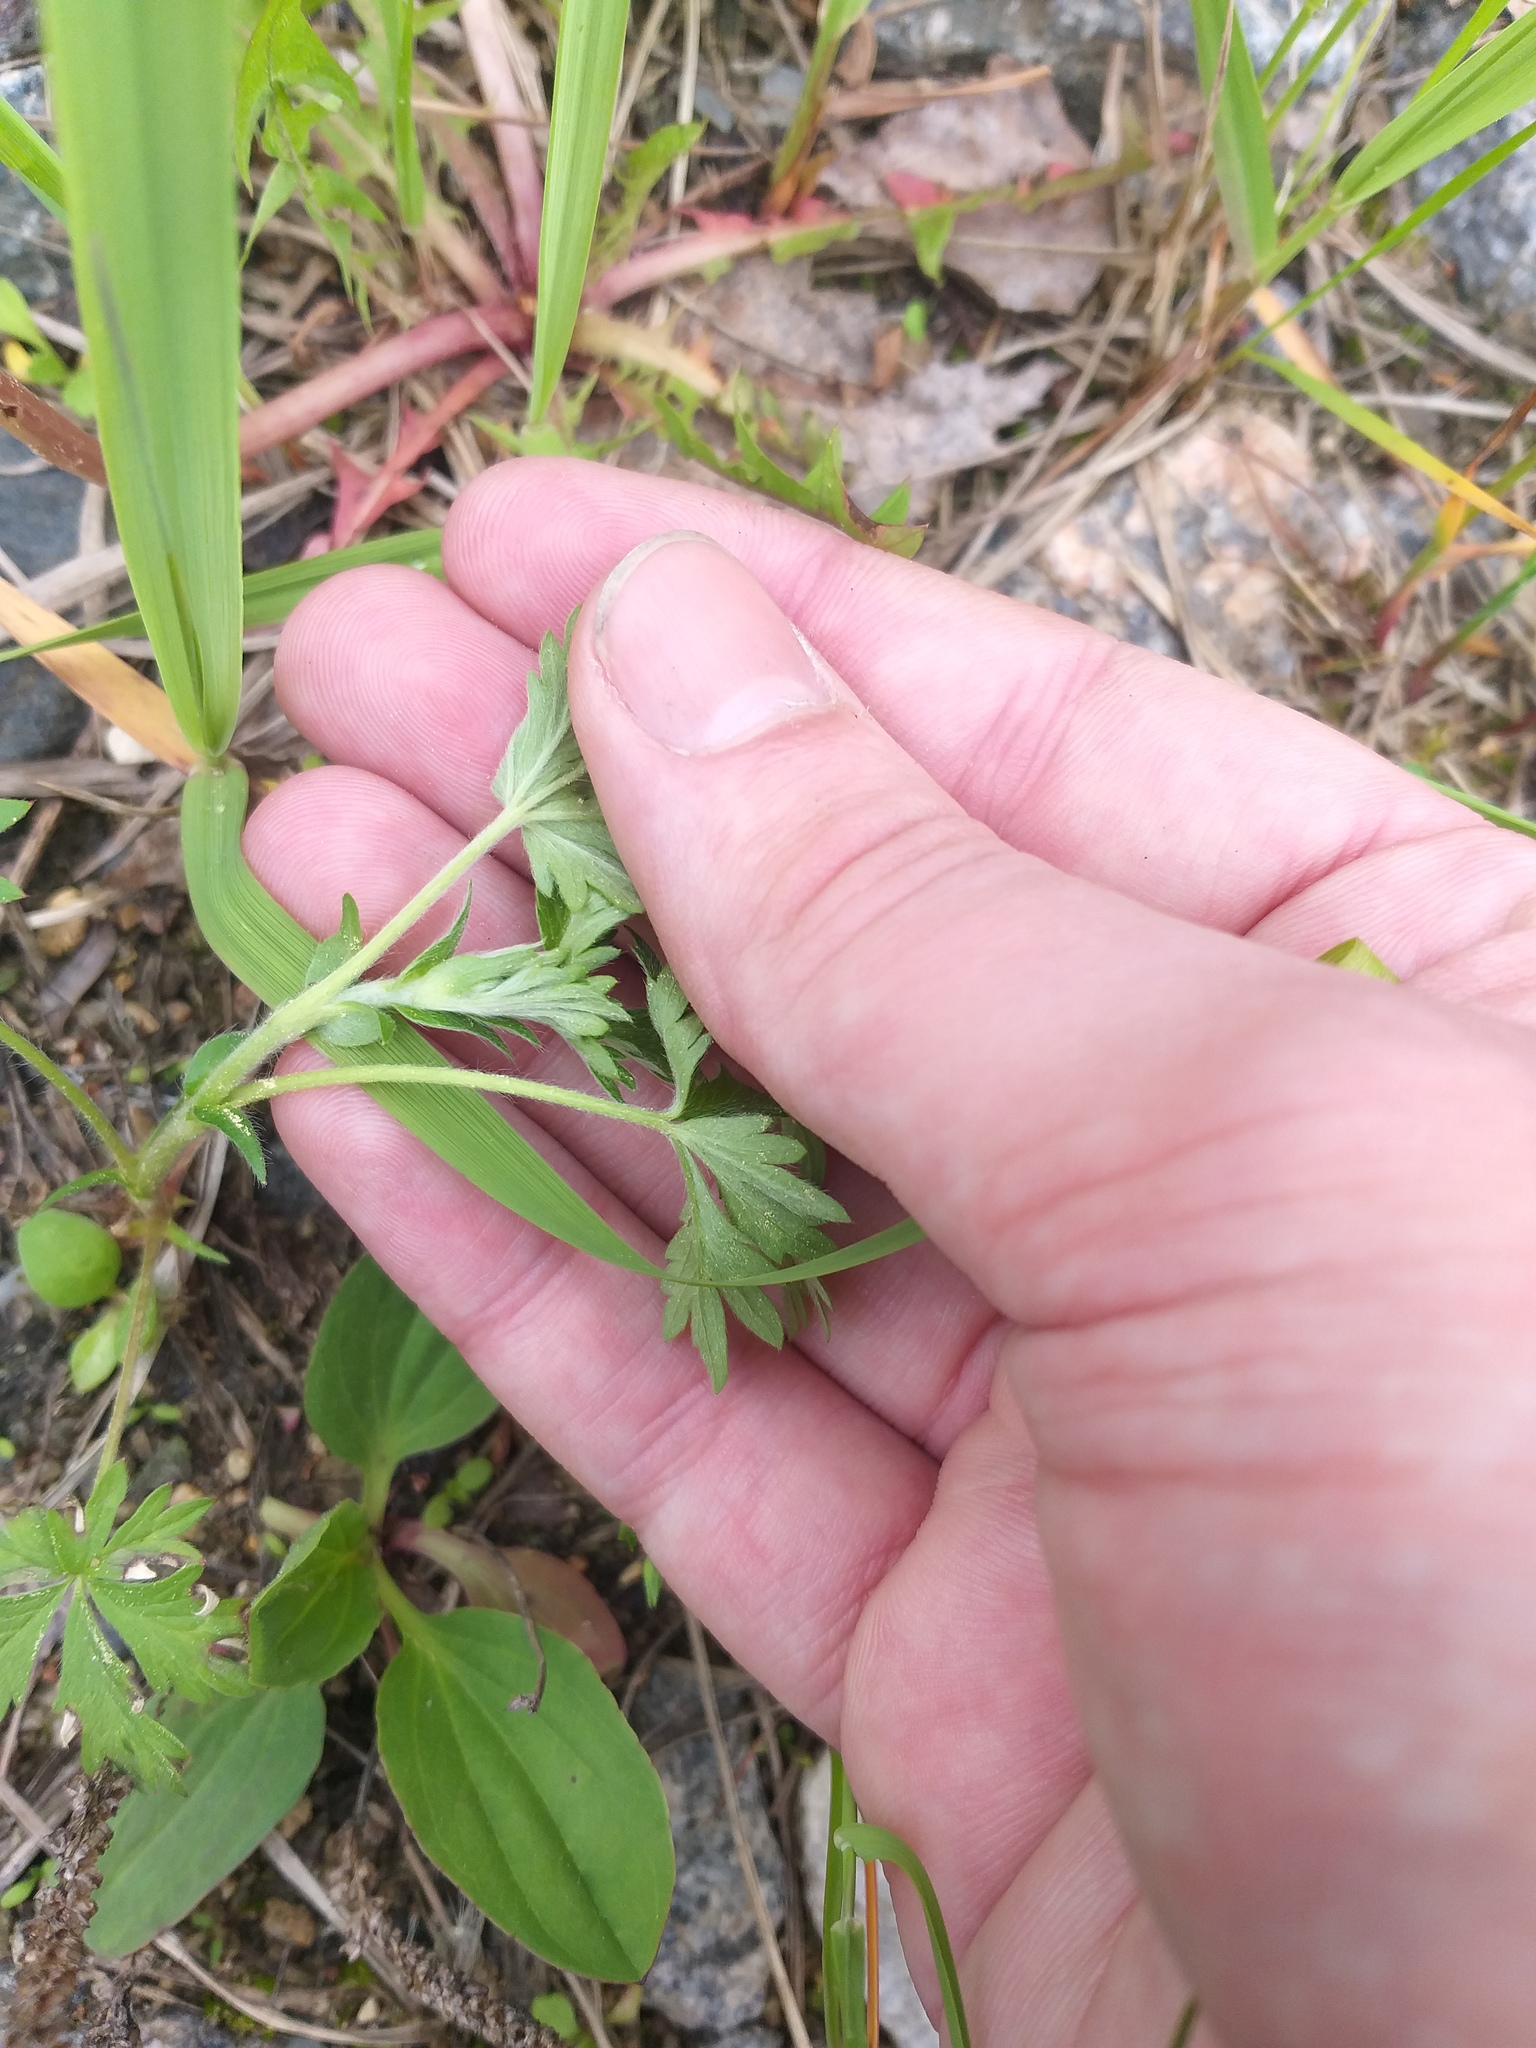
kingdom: Plantae
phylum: Tracheophyta
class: Magnoliopsida
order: Rosales
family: Rosaceae
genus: Potentilla
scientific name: Potentilla intermedia
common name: Downy cinquefoil
